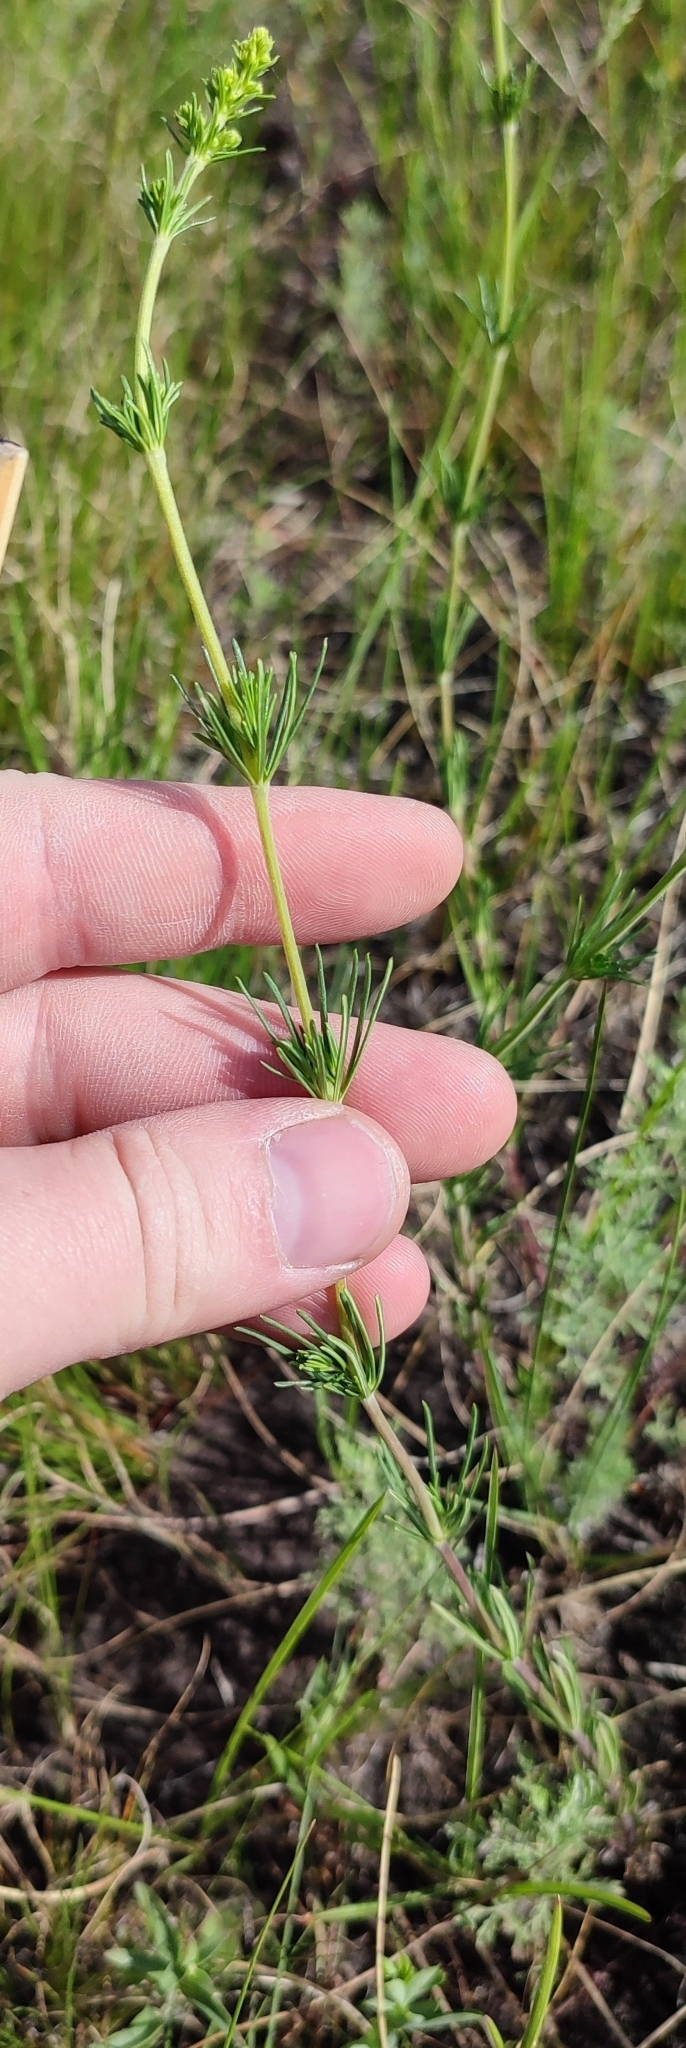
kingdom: Plantae
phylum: Tracheophyta
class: Magnoliopsida
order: Gentianales
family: Rubiaceae
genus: Galium
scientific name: Galium verum
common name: Lady's bedstraw
